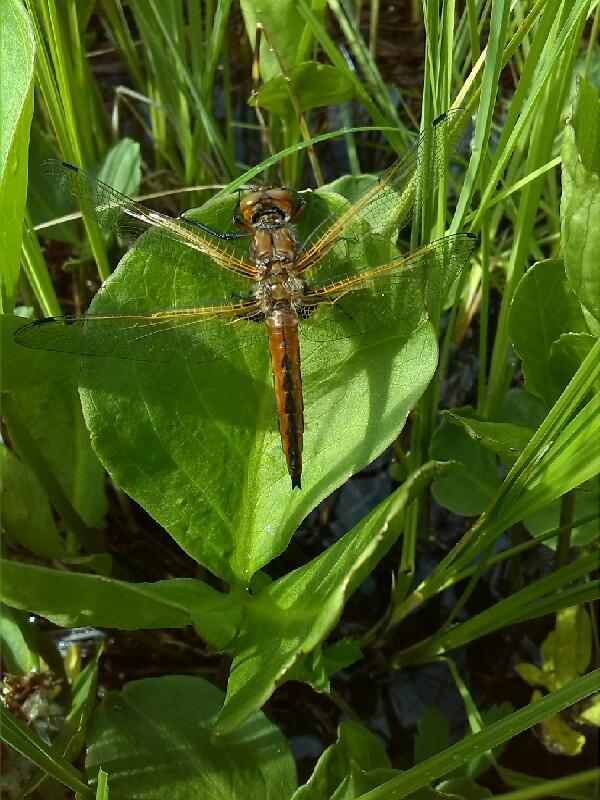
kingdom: Animalia
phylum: Arthropoda
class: Insecta
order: Odonata
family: Libellulidae
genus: Libellula
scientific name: Libellula fulva
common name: Blue chaser
